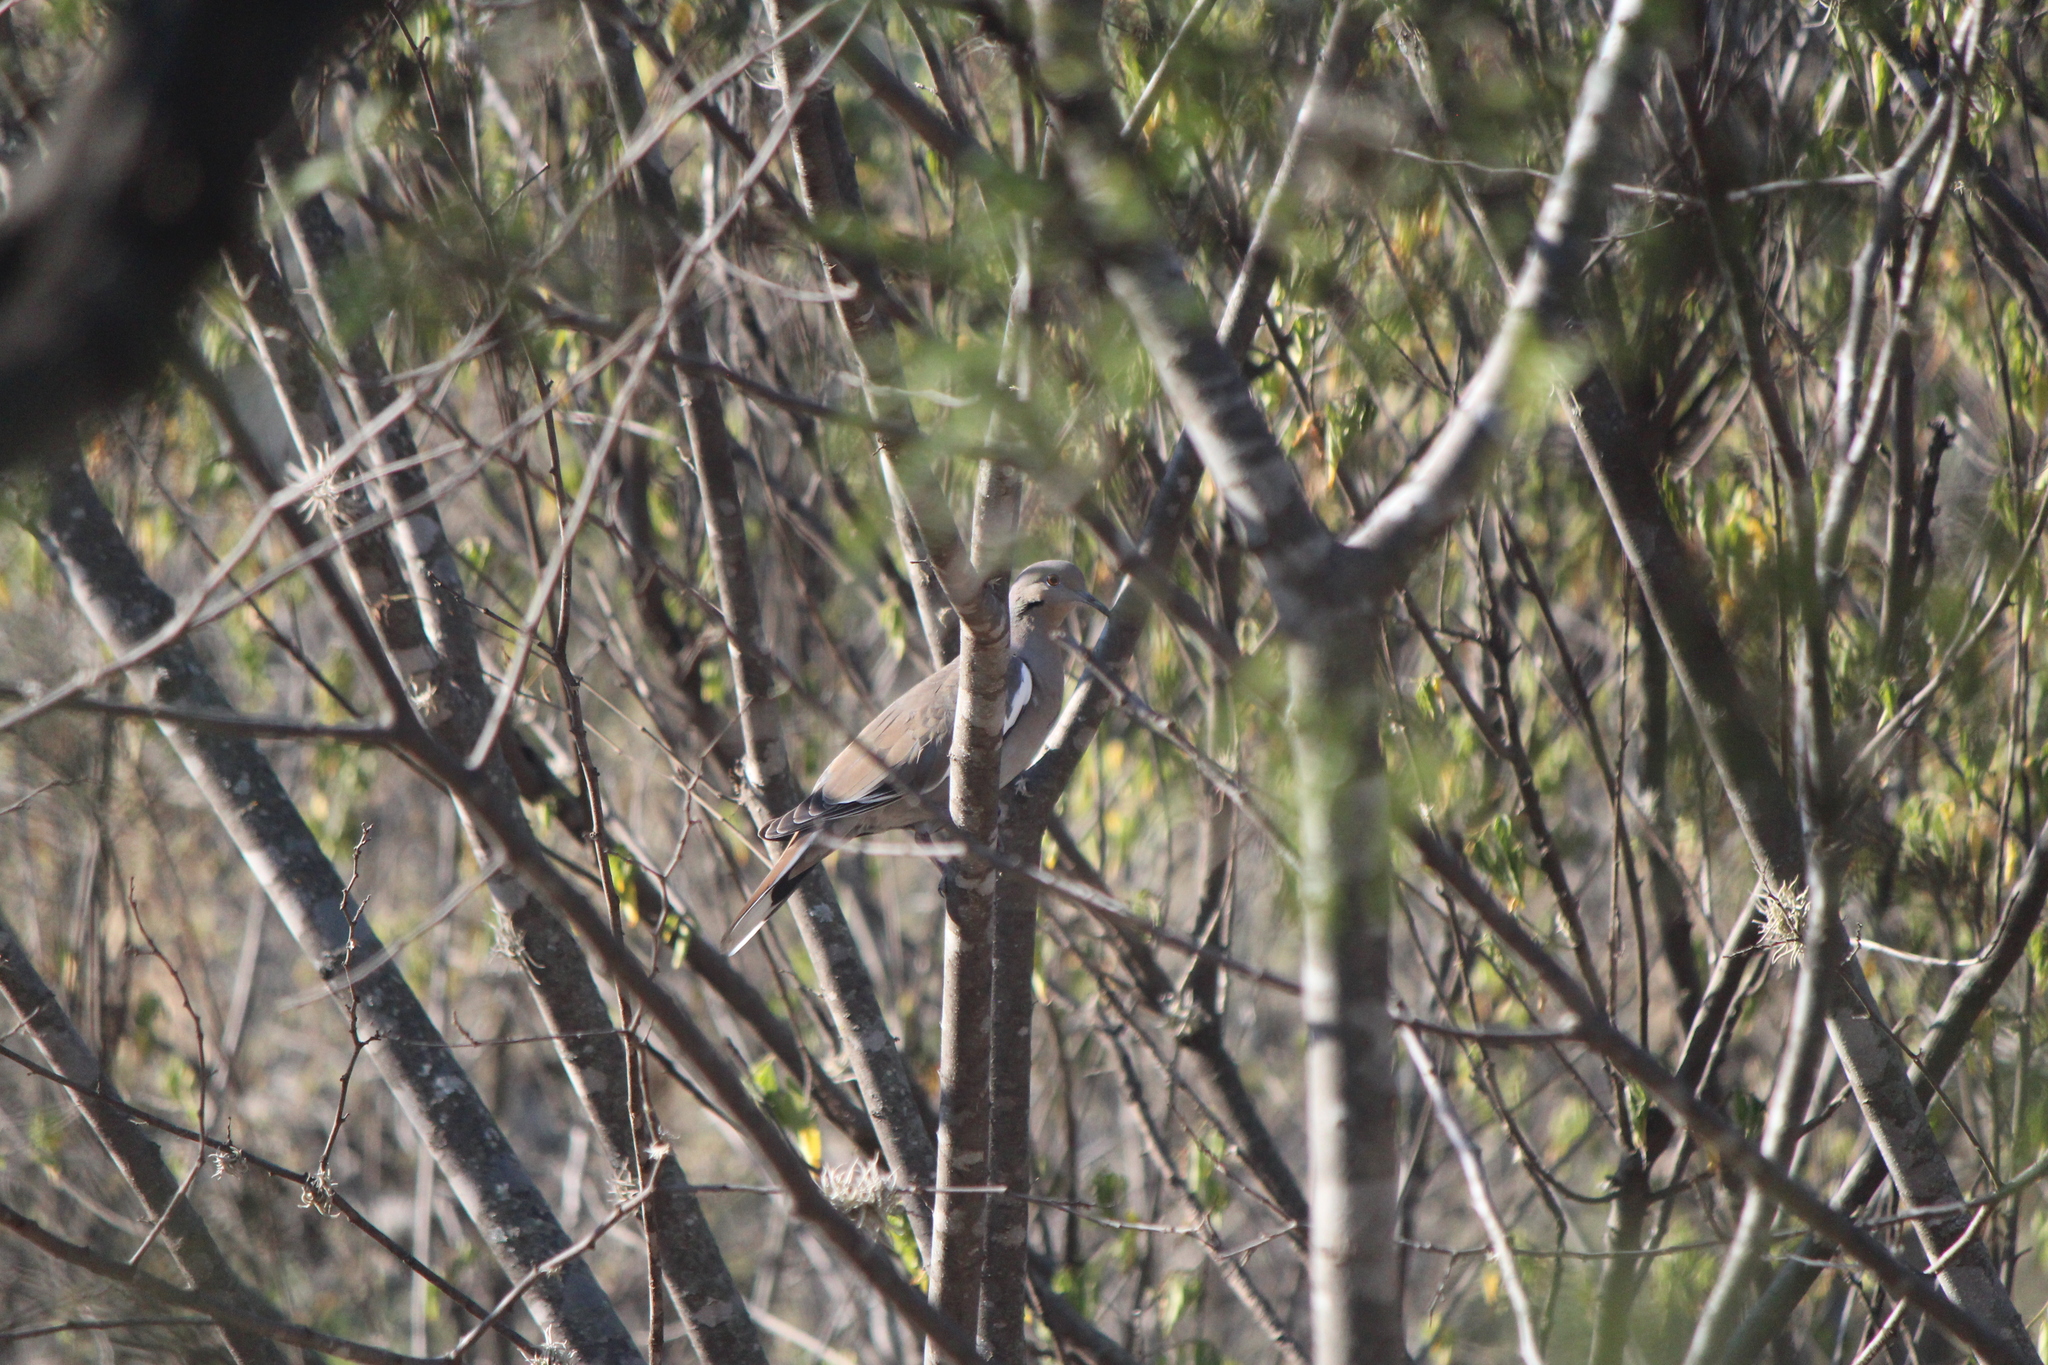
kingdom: Animalia
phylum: Chordata
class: Aves
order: Columbiformes
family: Columbidae
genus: Zenaida
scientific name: Zenaida asiatica
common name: White-winged dove
